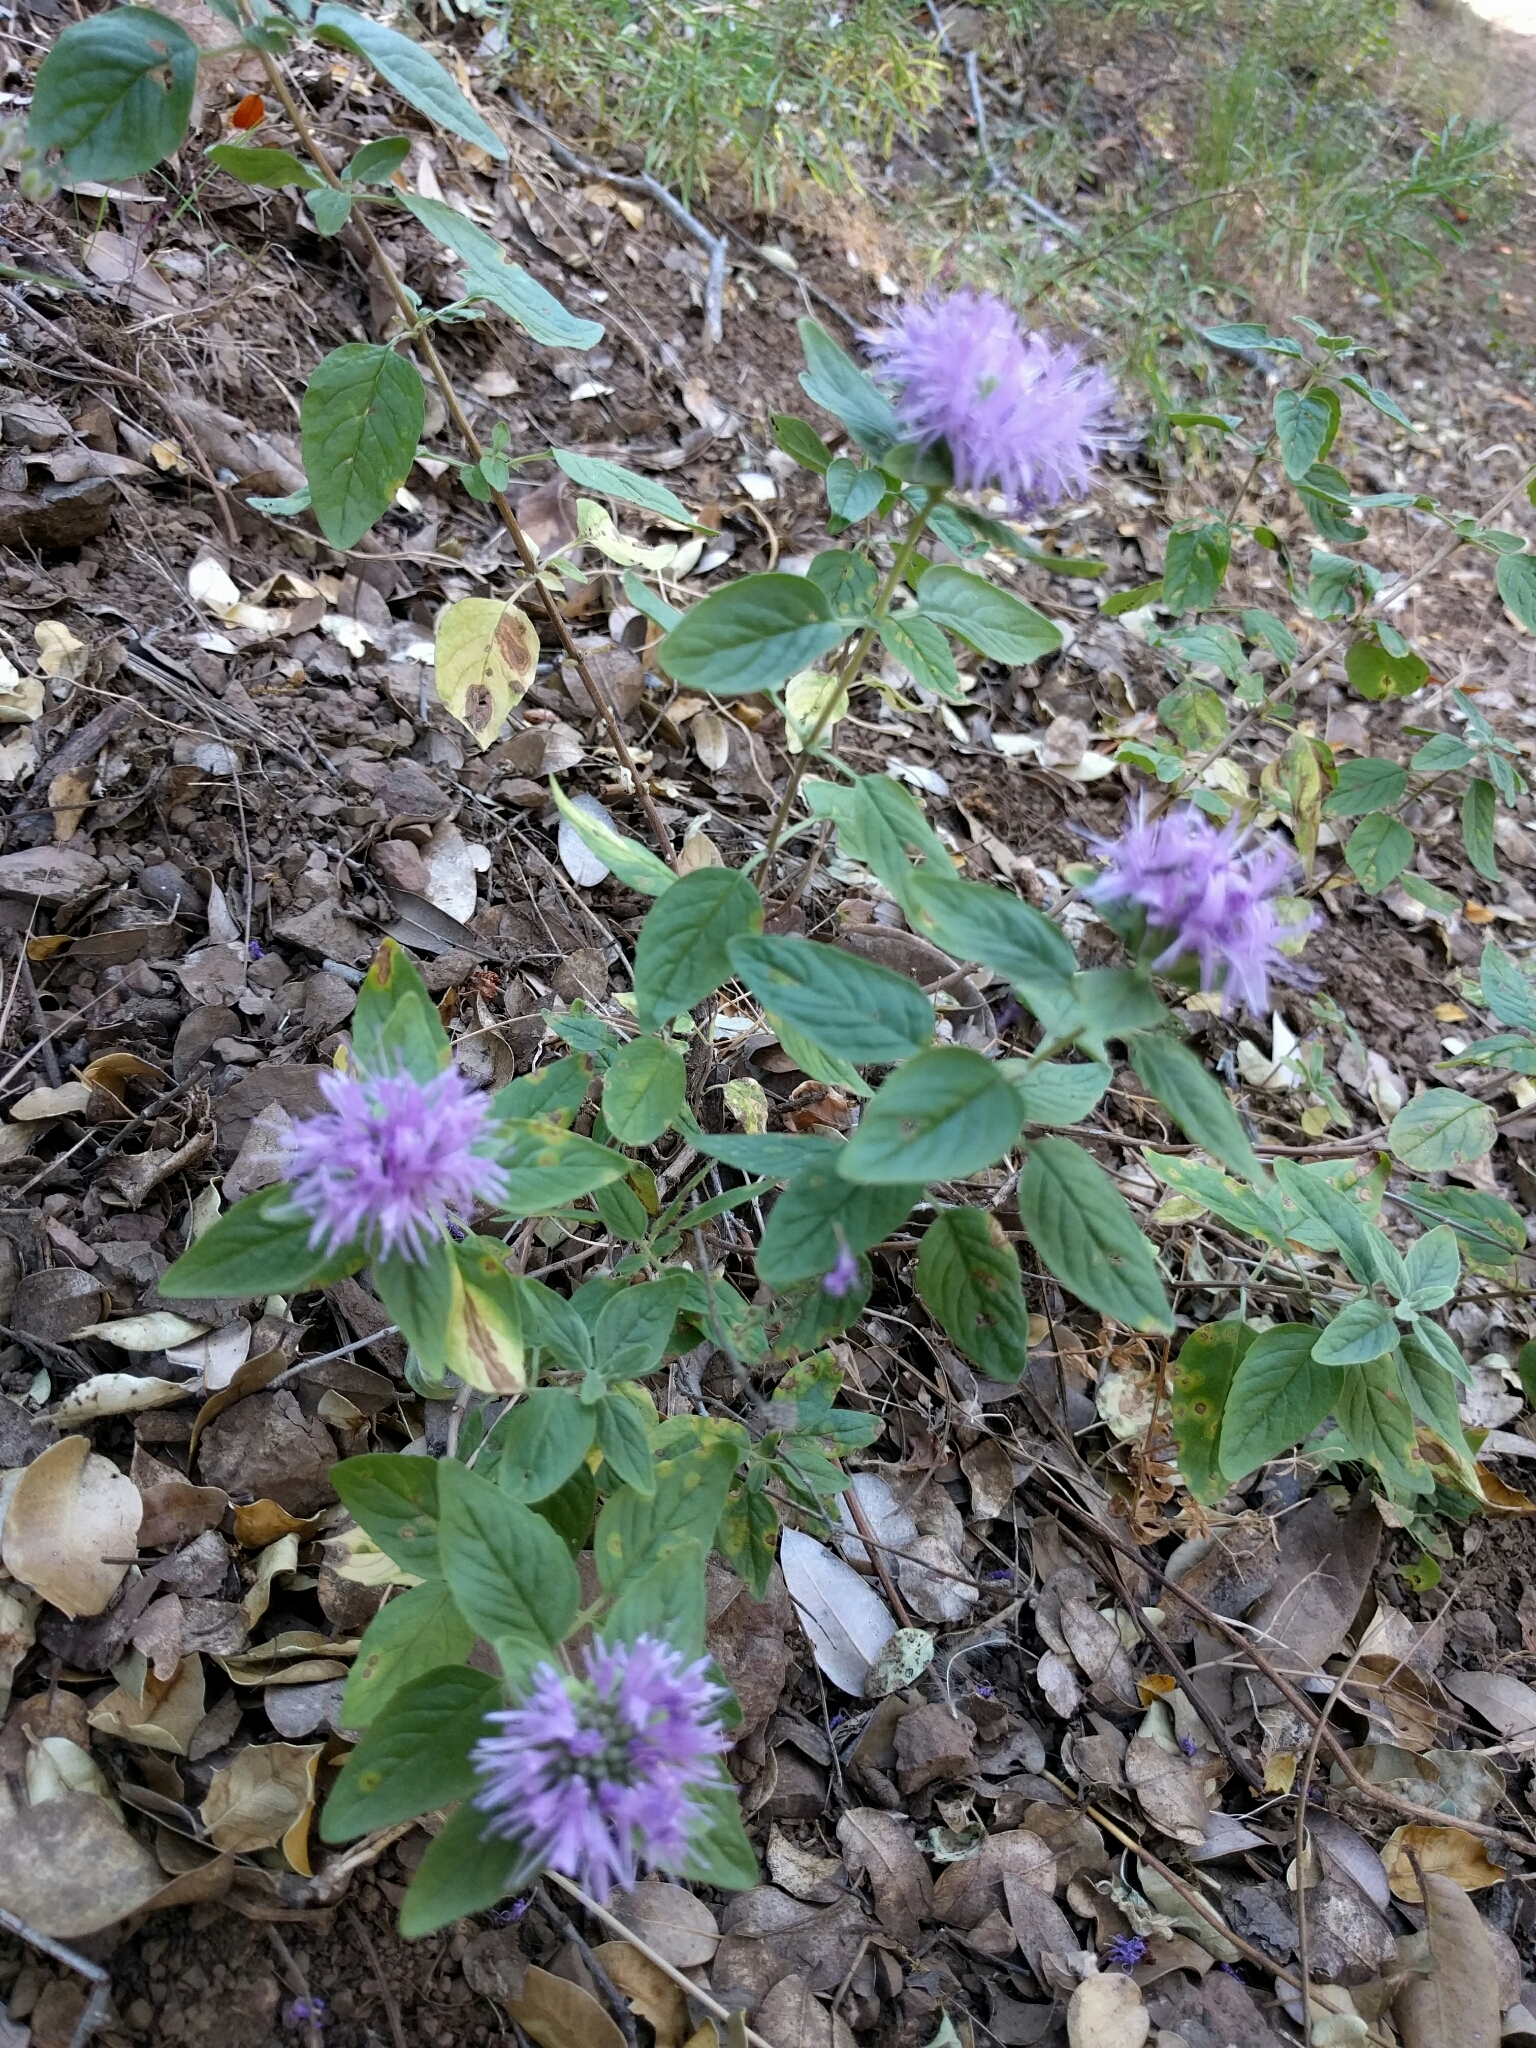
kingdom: Plantae
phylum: Tracheophyta
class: Magnoliopsida
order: Lamiales
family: Lamiaceae
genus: Monardella
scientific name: Monardella odoratissima
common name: Pacific monardella
